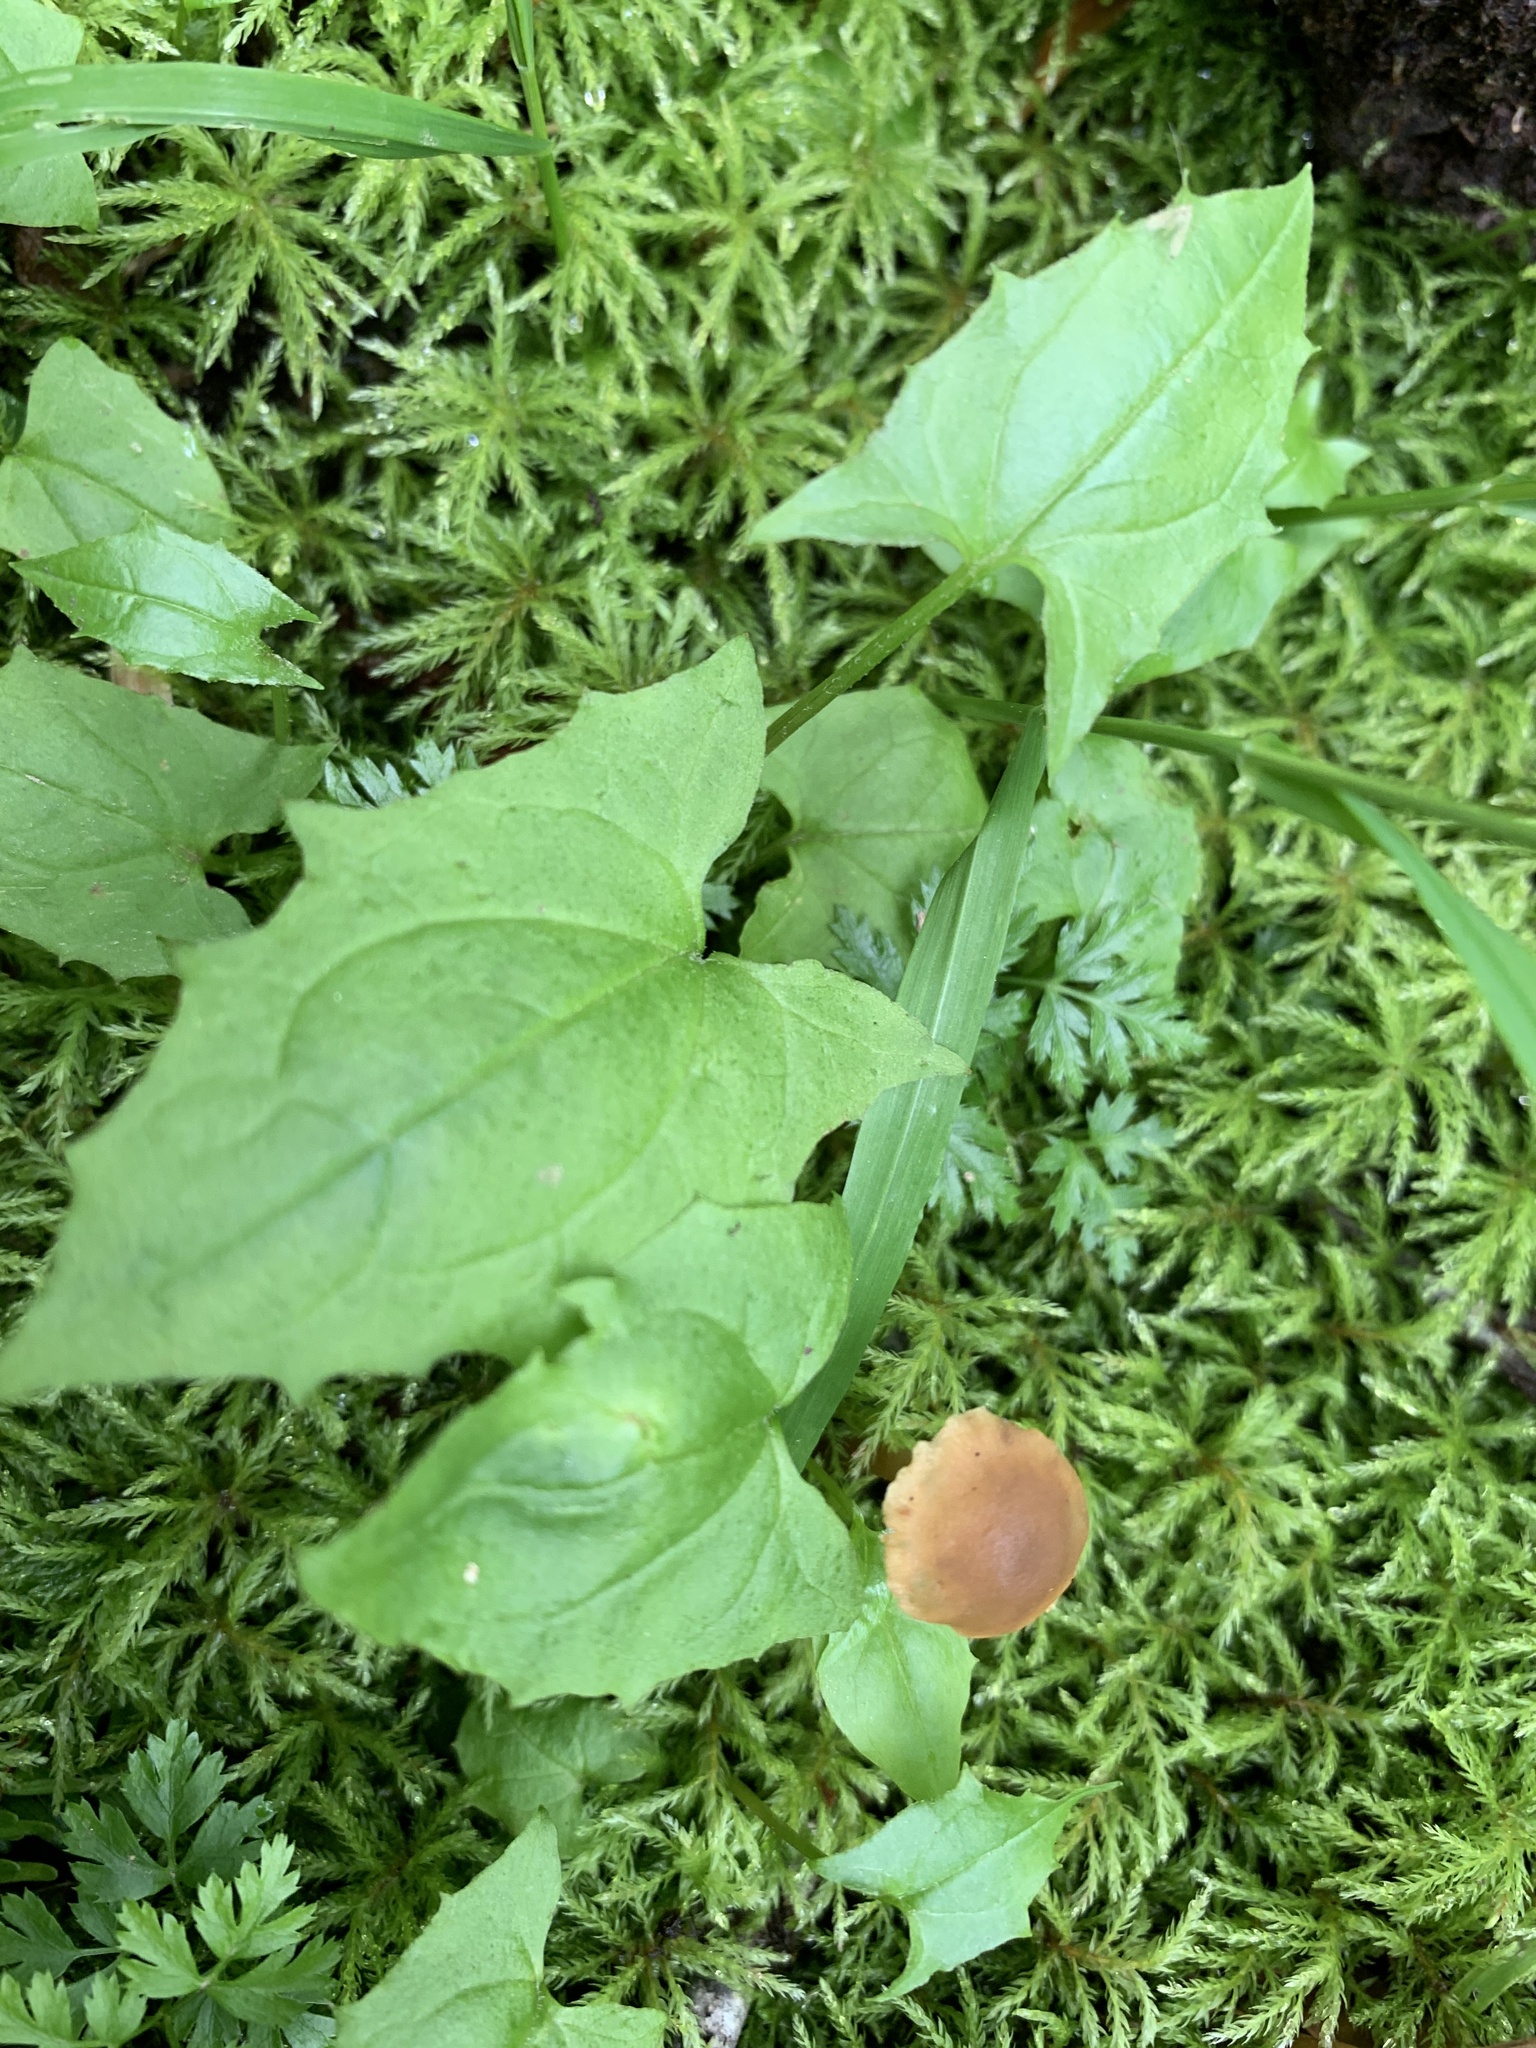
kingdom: Plantae
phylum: Tracheophyta
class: Magnoliopsida
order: Asterales
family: Asteraceae
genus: Nabalus
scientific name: Nabalus hastatus
